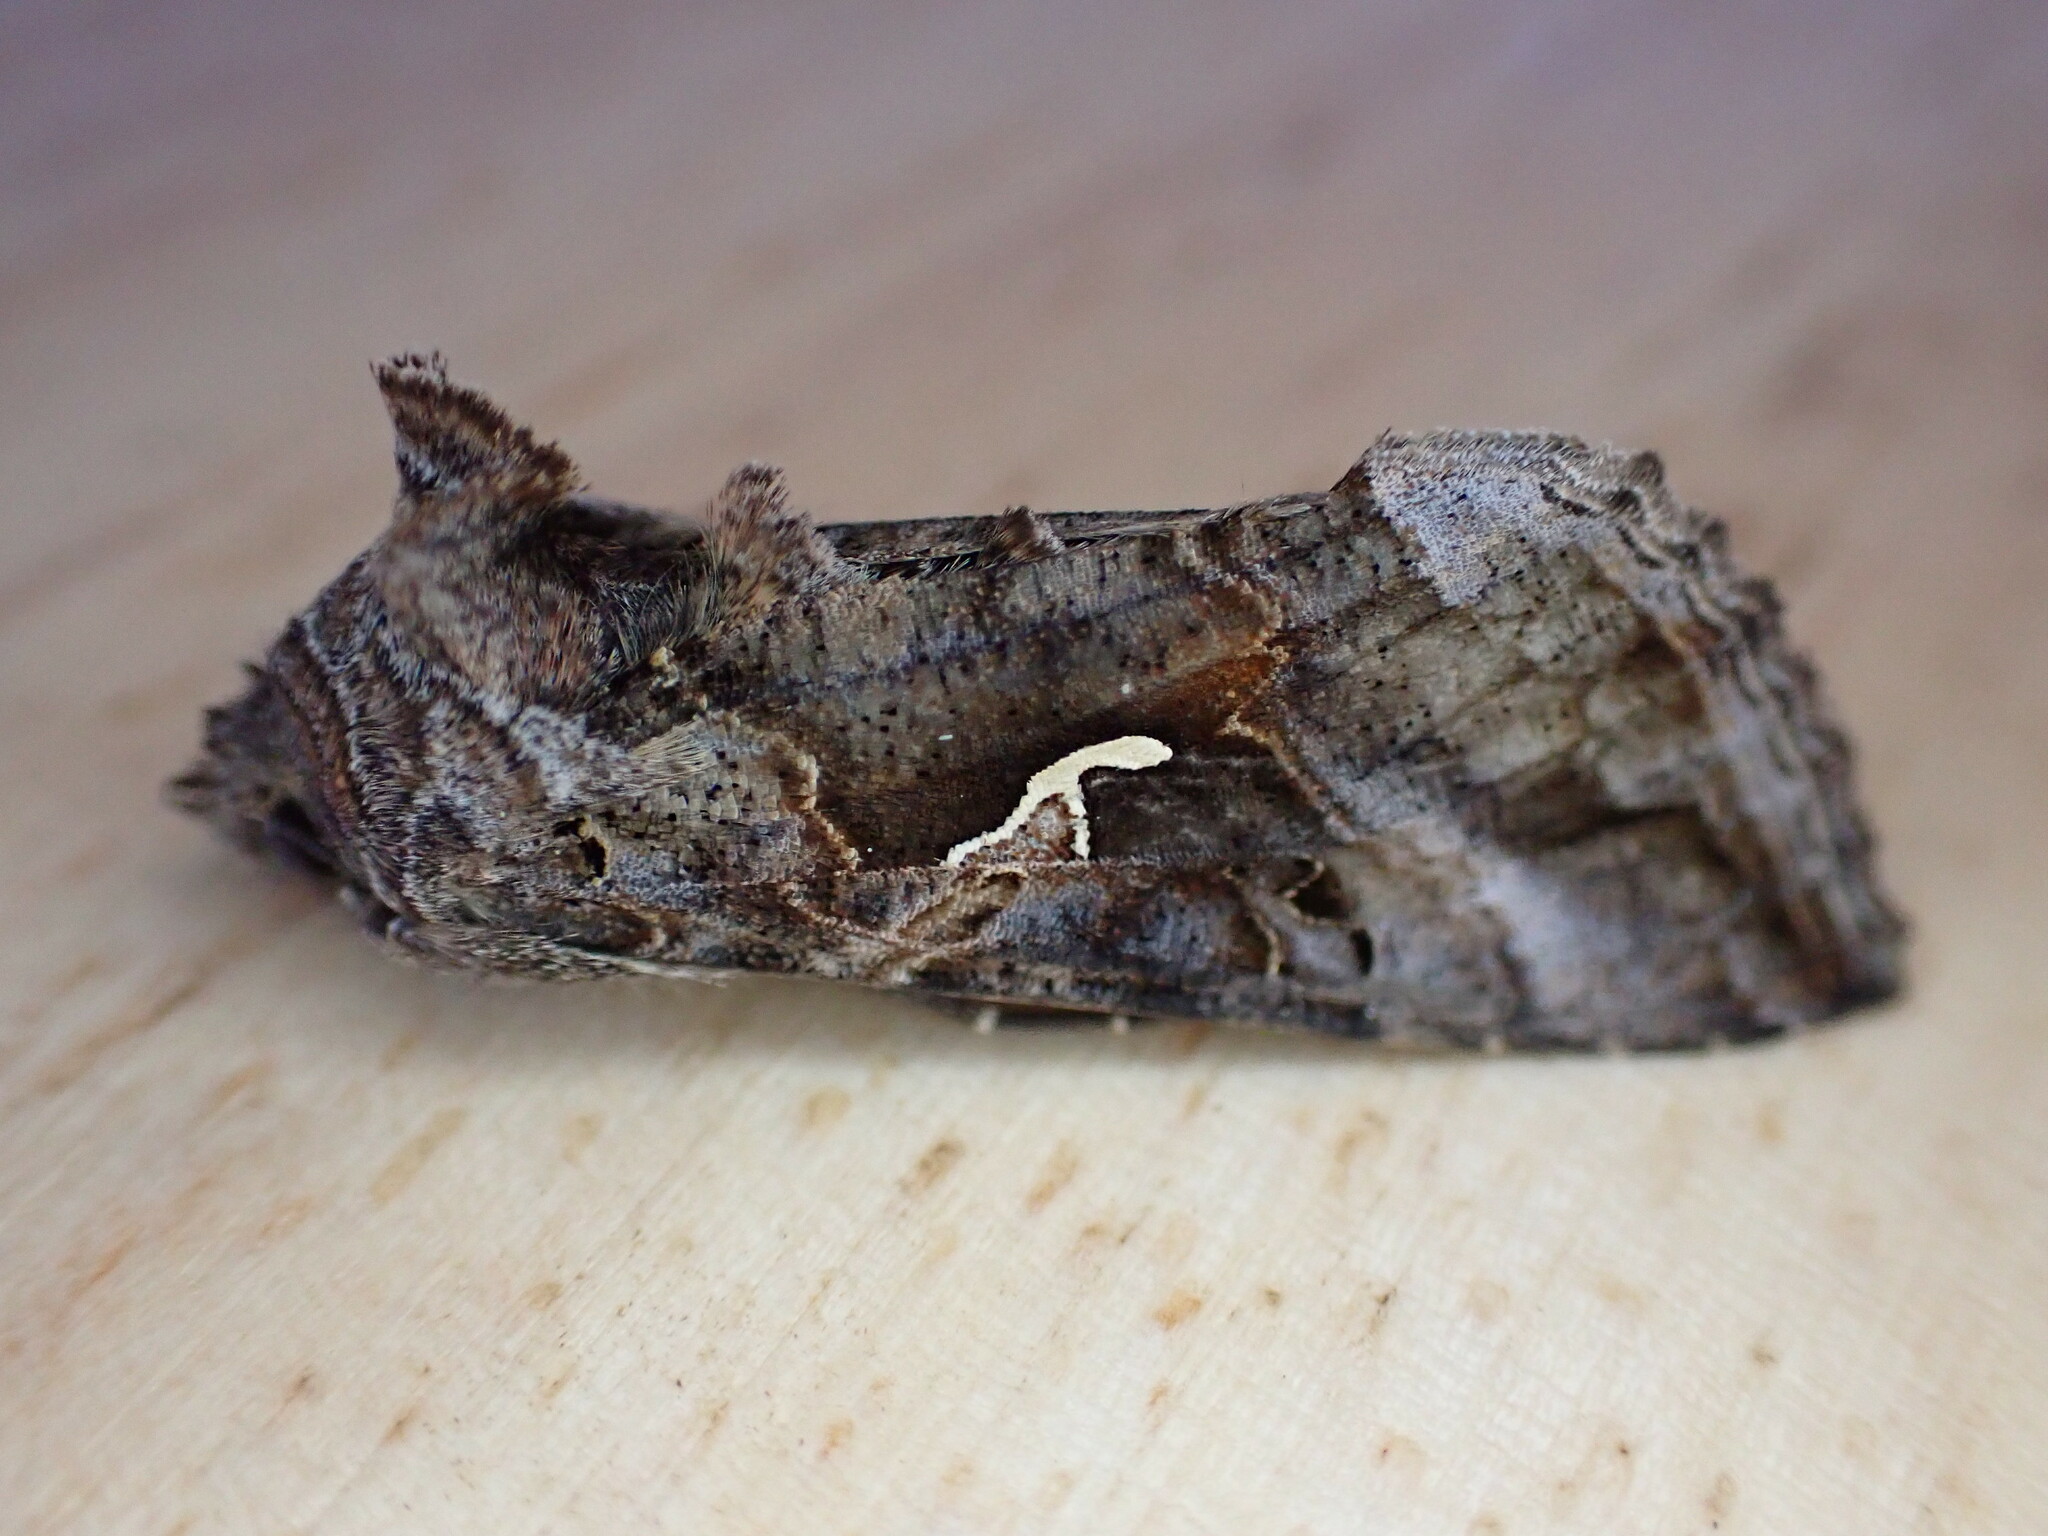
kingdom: Animalia
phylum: Arthropoda
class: Insecta
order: Lepidoptera
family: Noctuidae
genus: Autographa
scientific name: Autographa gamma
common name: Silver y
